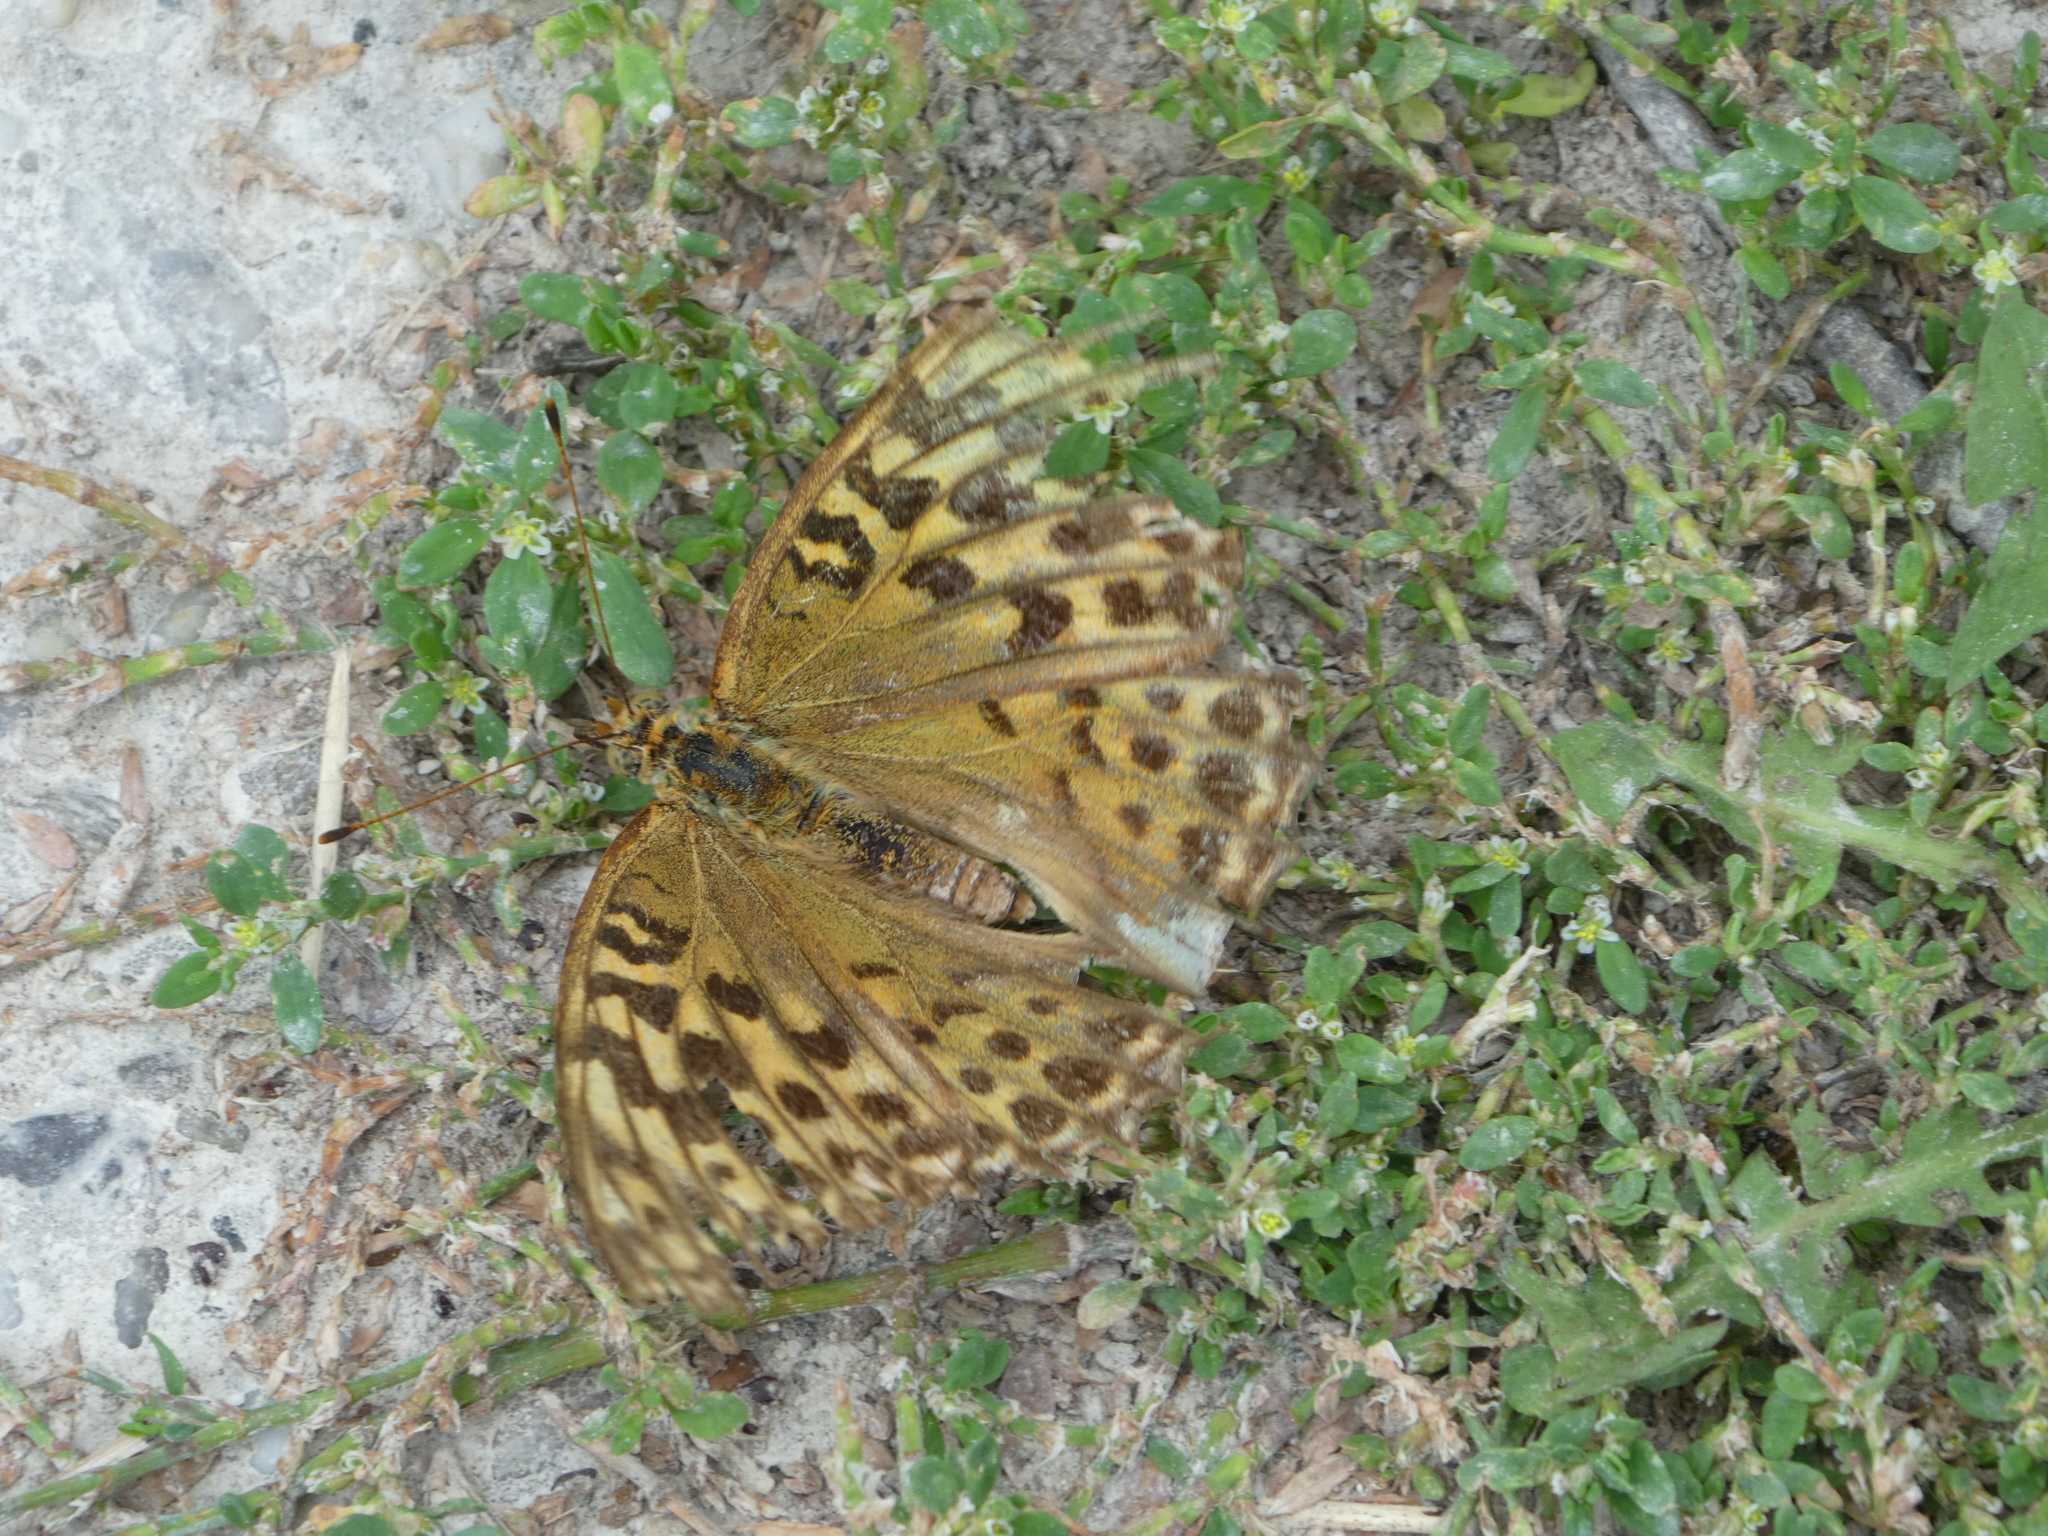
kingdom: Animalia
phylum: Arthropoda
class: Insecta
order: Lepidoptera
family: Nymphalidae
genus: Argynnis
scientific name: Argynnis paphia
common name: Silver-washed fritillary
